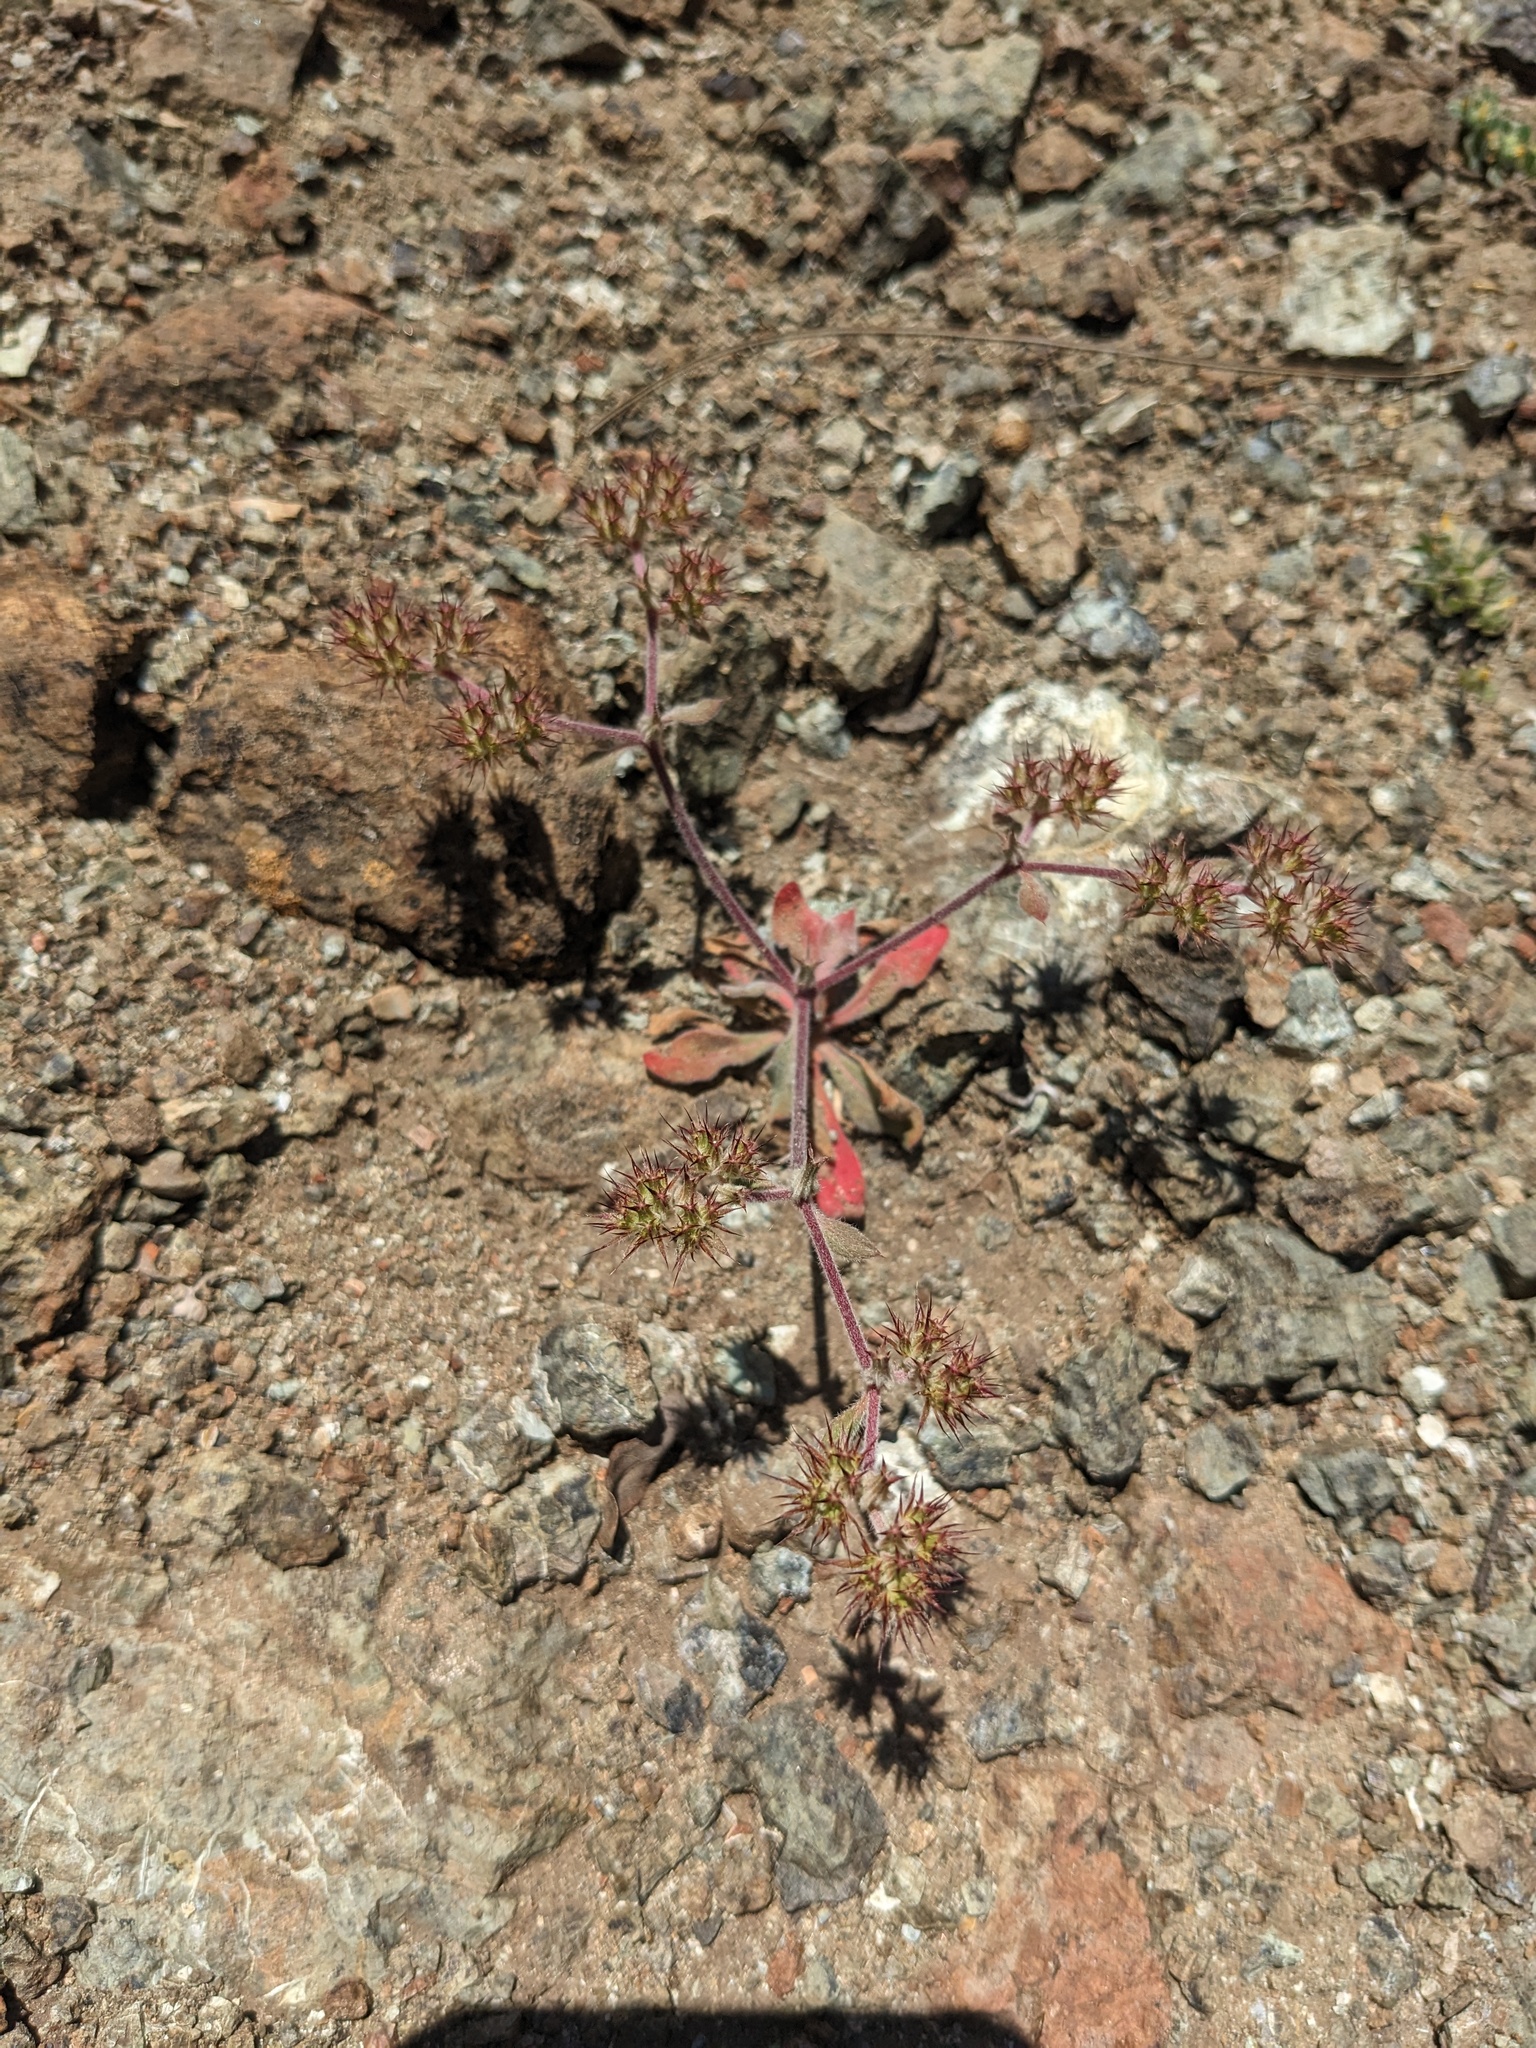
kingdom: Plantae
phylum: Tracheophyta
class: Magnoliopsida
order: Caryophyllales
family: Polygonaceae
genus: Chorizanthe
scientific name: Chorizanthe ventricosa
